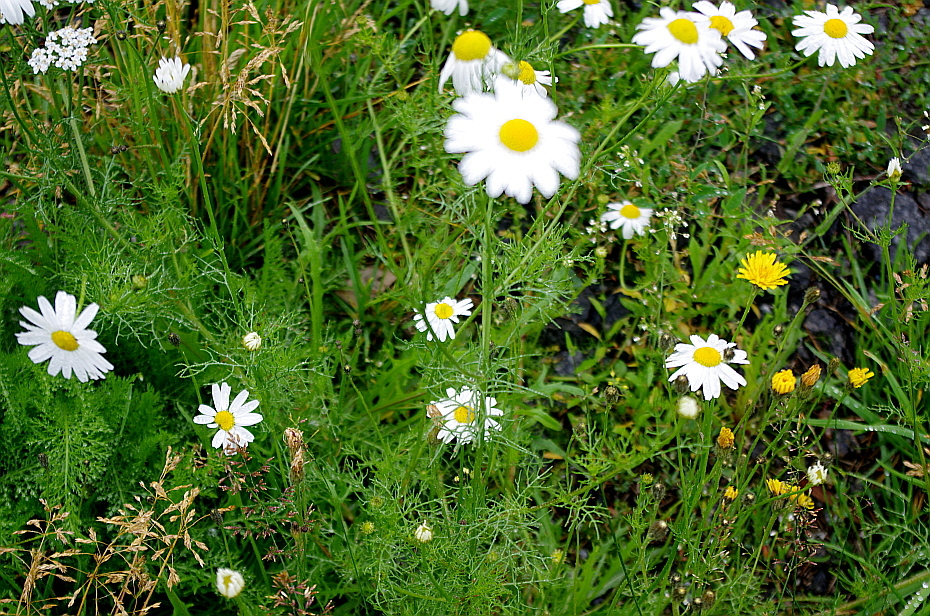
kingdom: Plantae
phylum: Tracheophyta
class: Magnoliopsida
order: Asterales
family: Asteraceae
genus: Tripleurospermum
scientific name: Tripleurospermum inodorum
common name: Scentless mayweed
